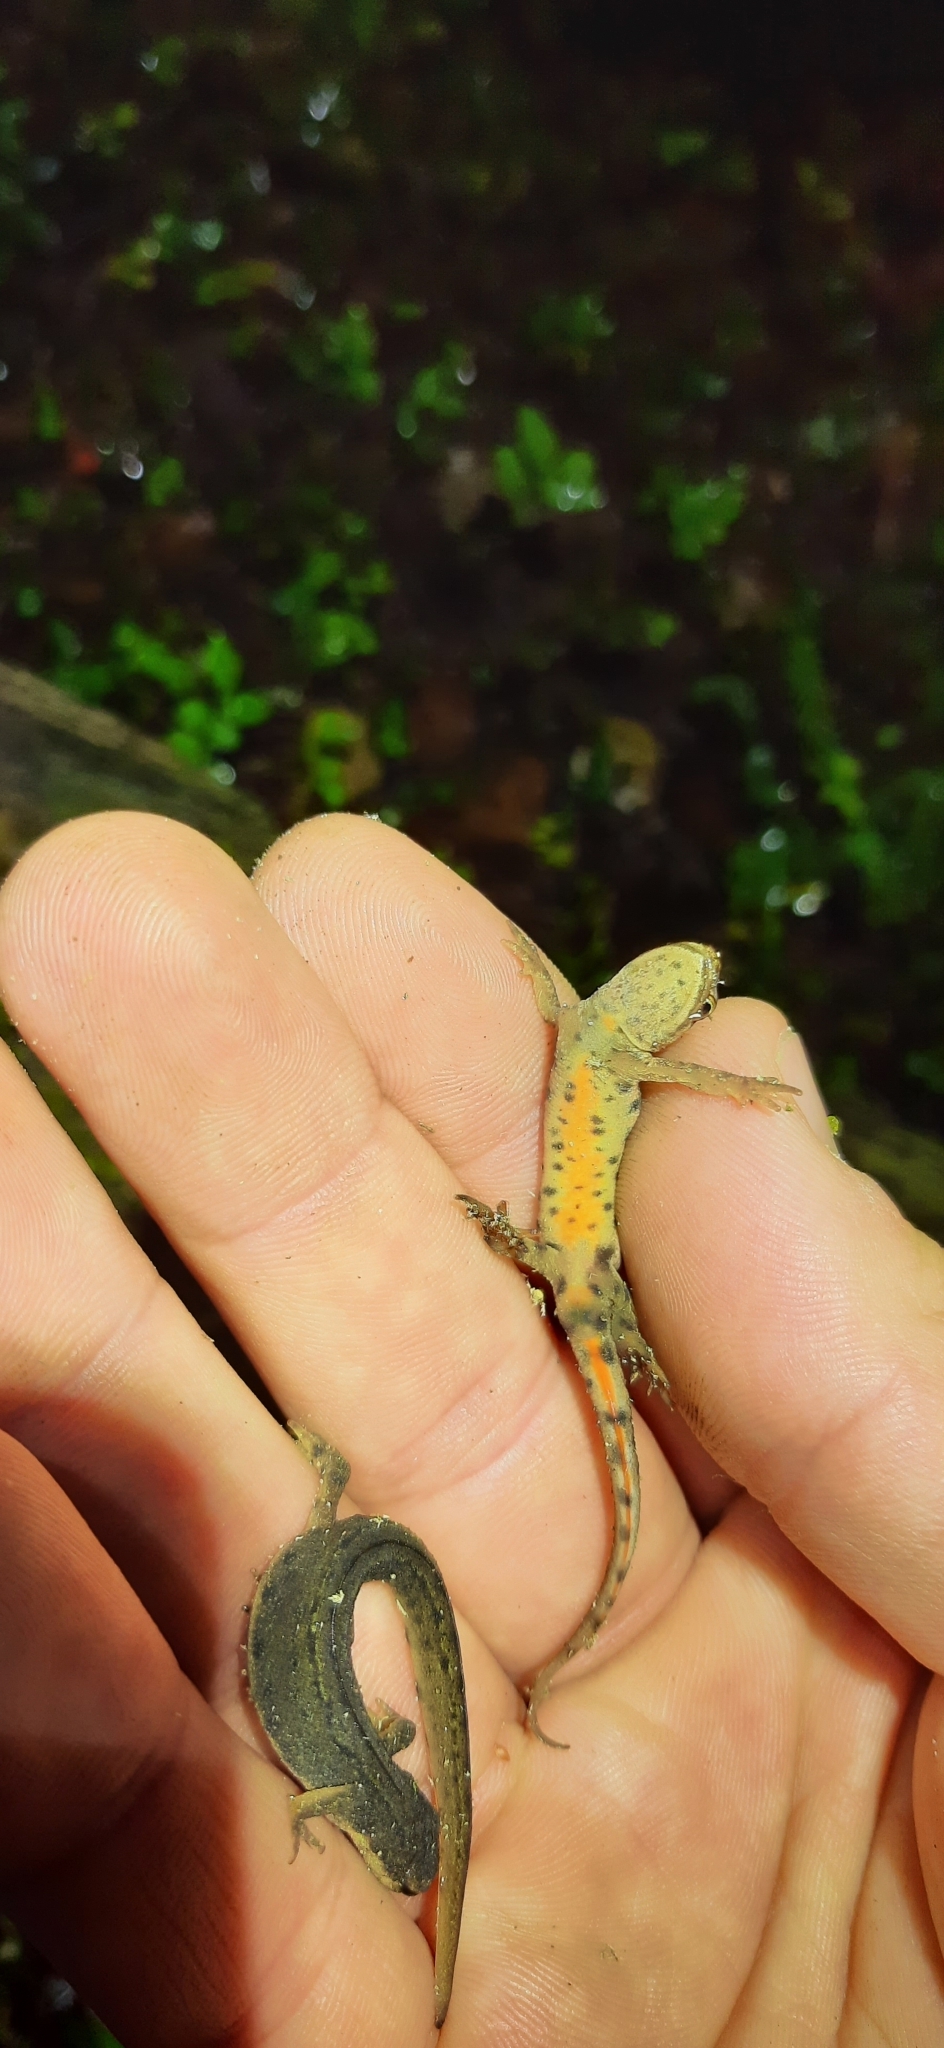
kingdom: Animalia
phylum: Chordata
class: Amphibia
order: Caudata
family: Salamandridae
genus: Lissotriton
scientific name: Lissotriton vulgaris
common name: Smooth newt
